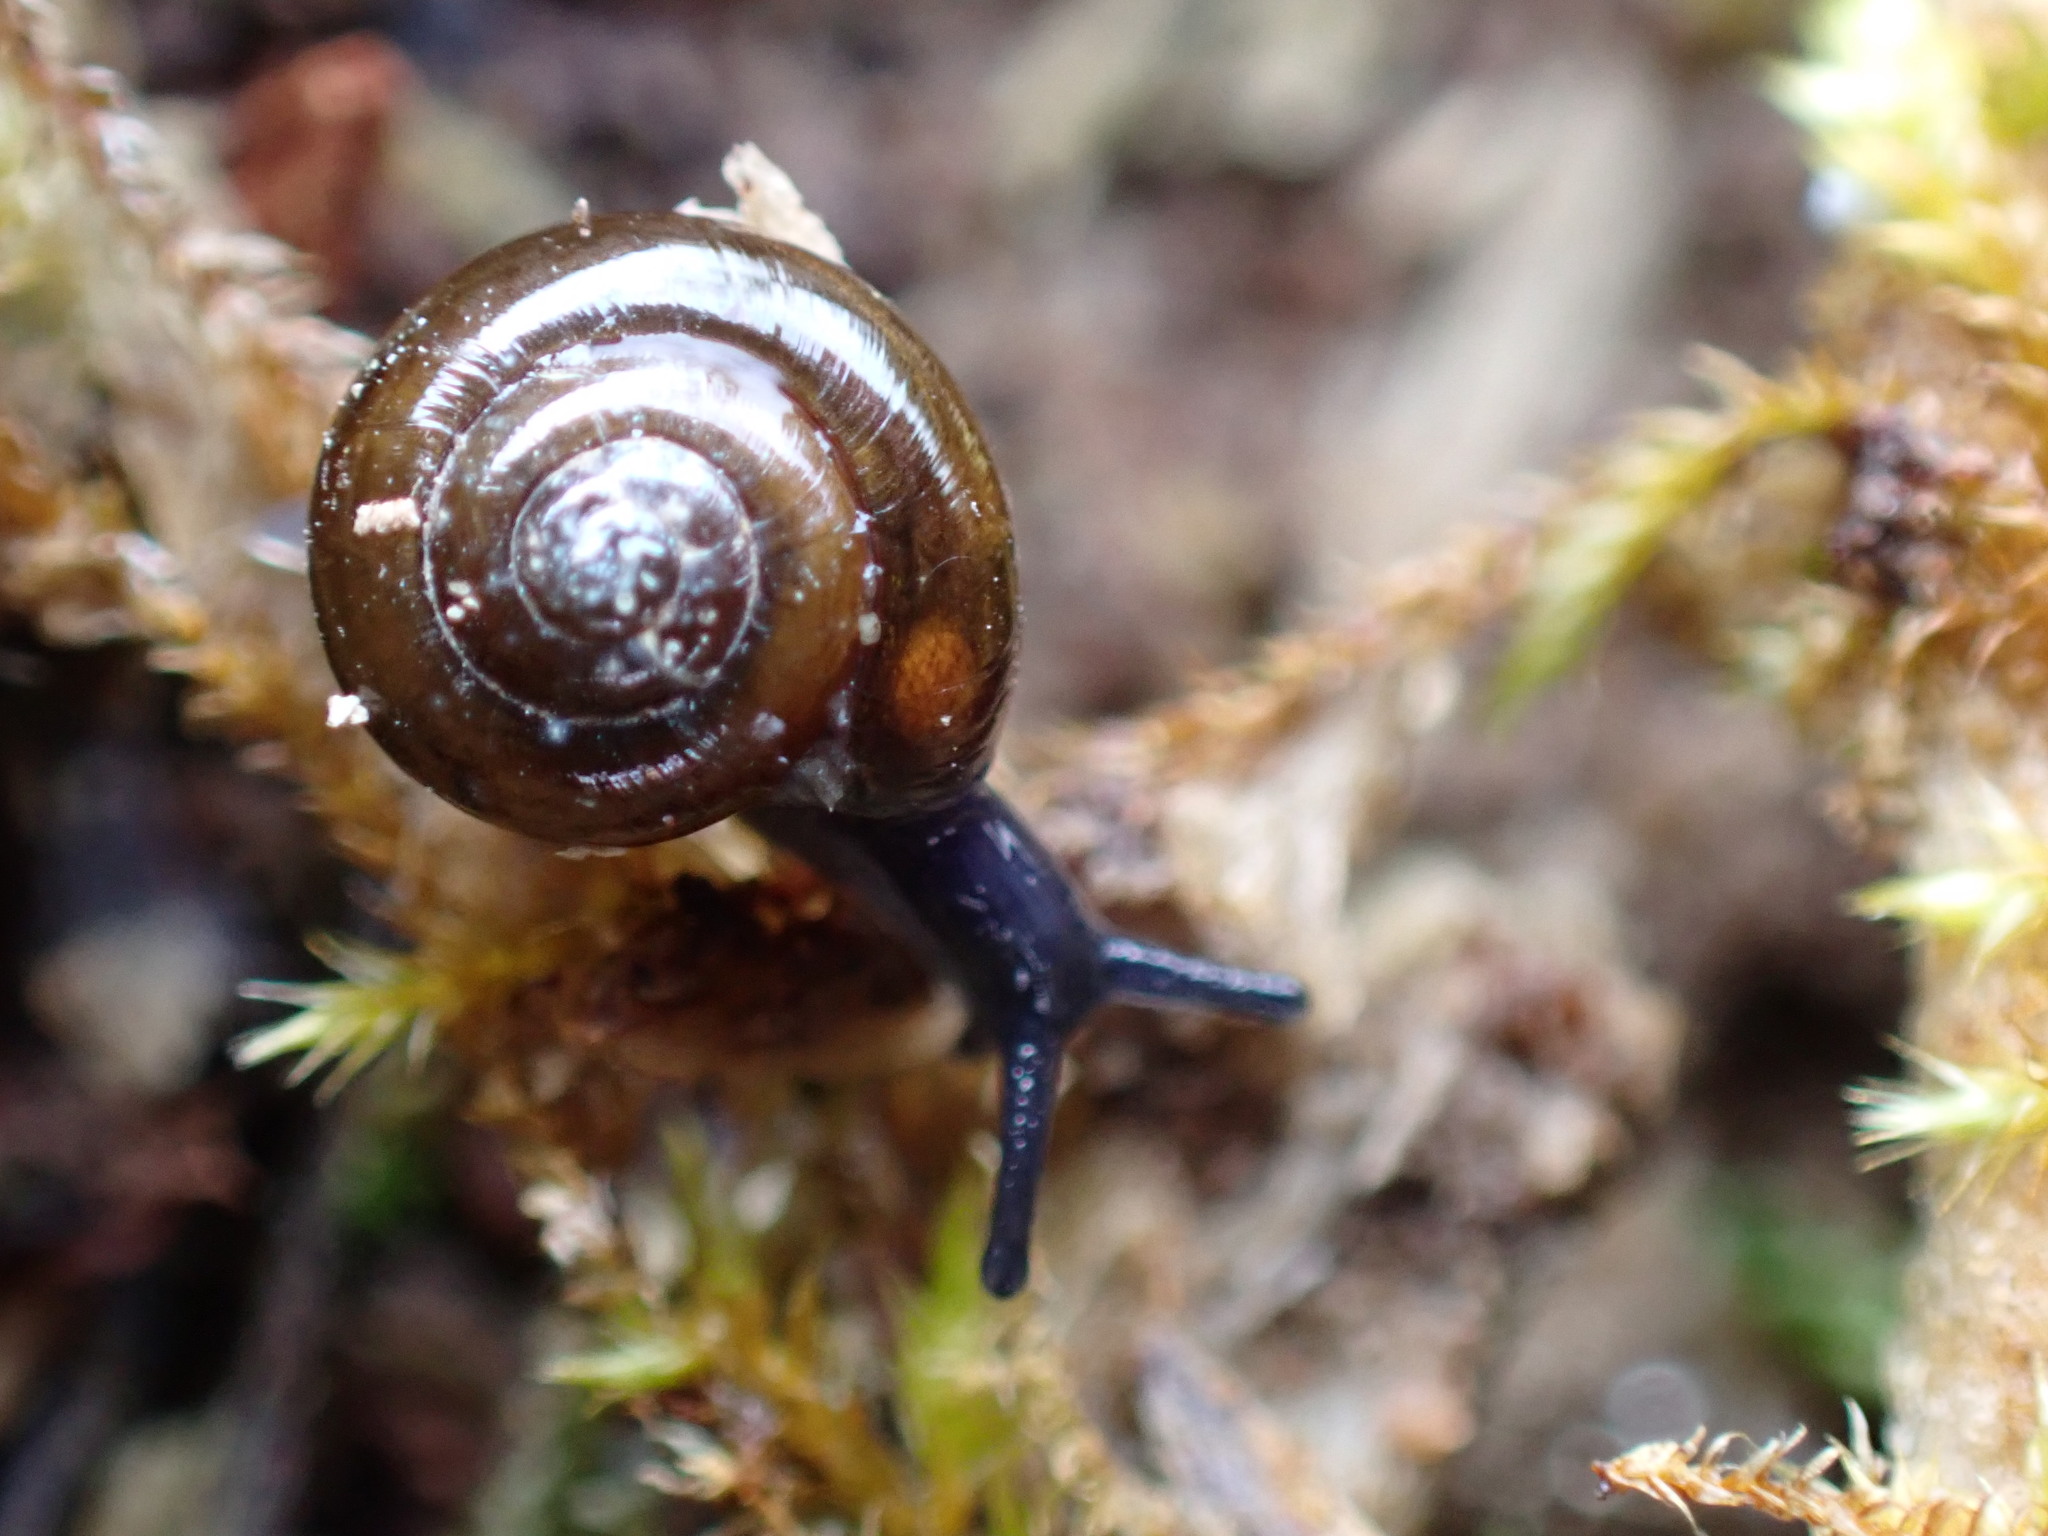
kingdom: Animalia
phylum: Mollusca
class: Gastropoda
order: Stylommatophora
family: Gastrodontidae
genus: Zonitoides
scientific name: Zonitoides nitidus
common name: Shiny glass snail
